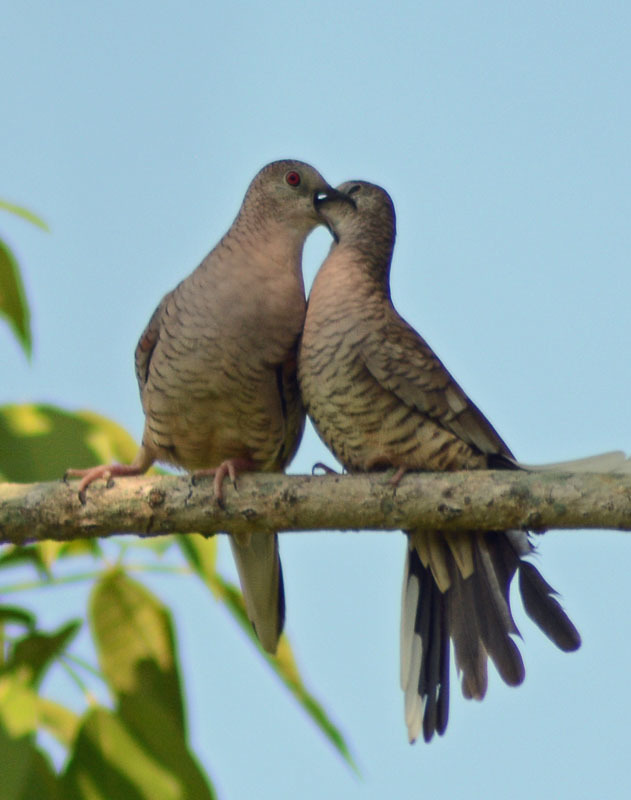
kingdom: Animalia
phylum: Chordata
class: Aves
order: Columbiformes
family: Columbidae
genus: Columbina
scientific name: Columbina inca
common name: Inca dove
